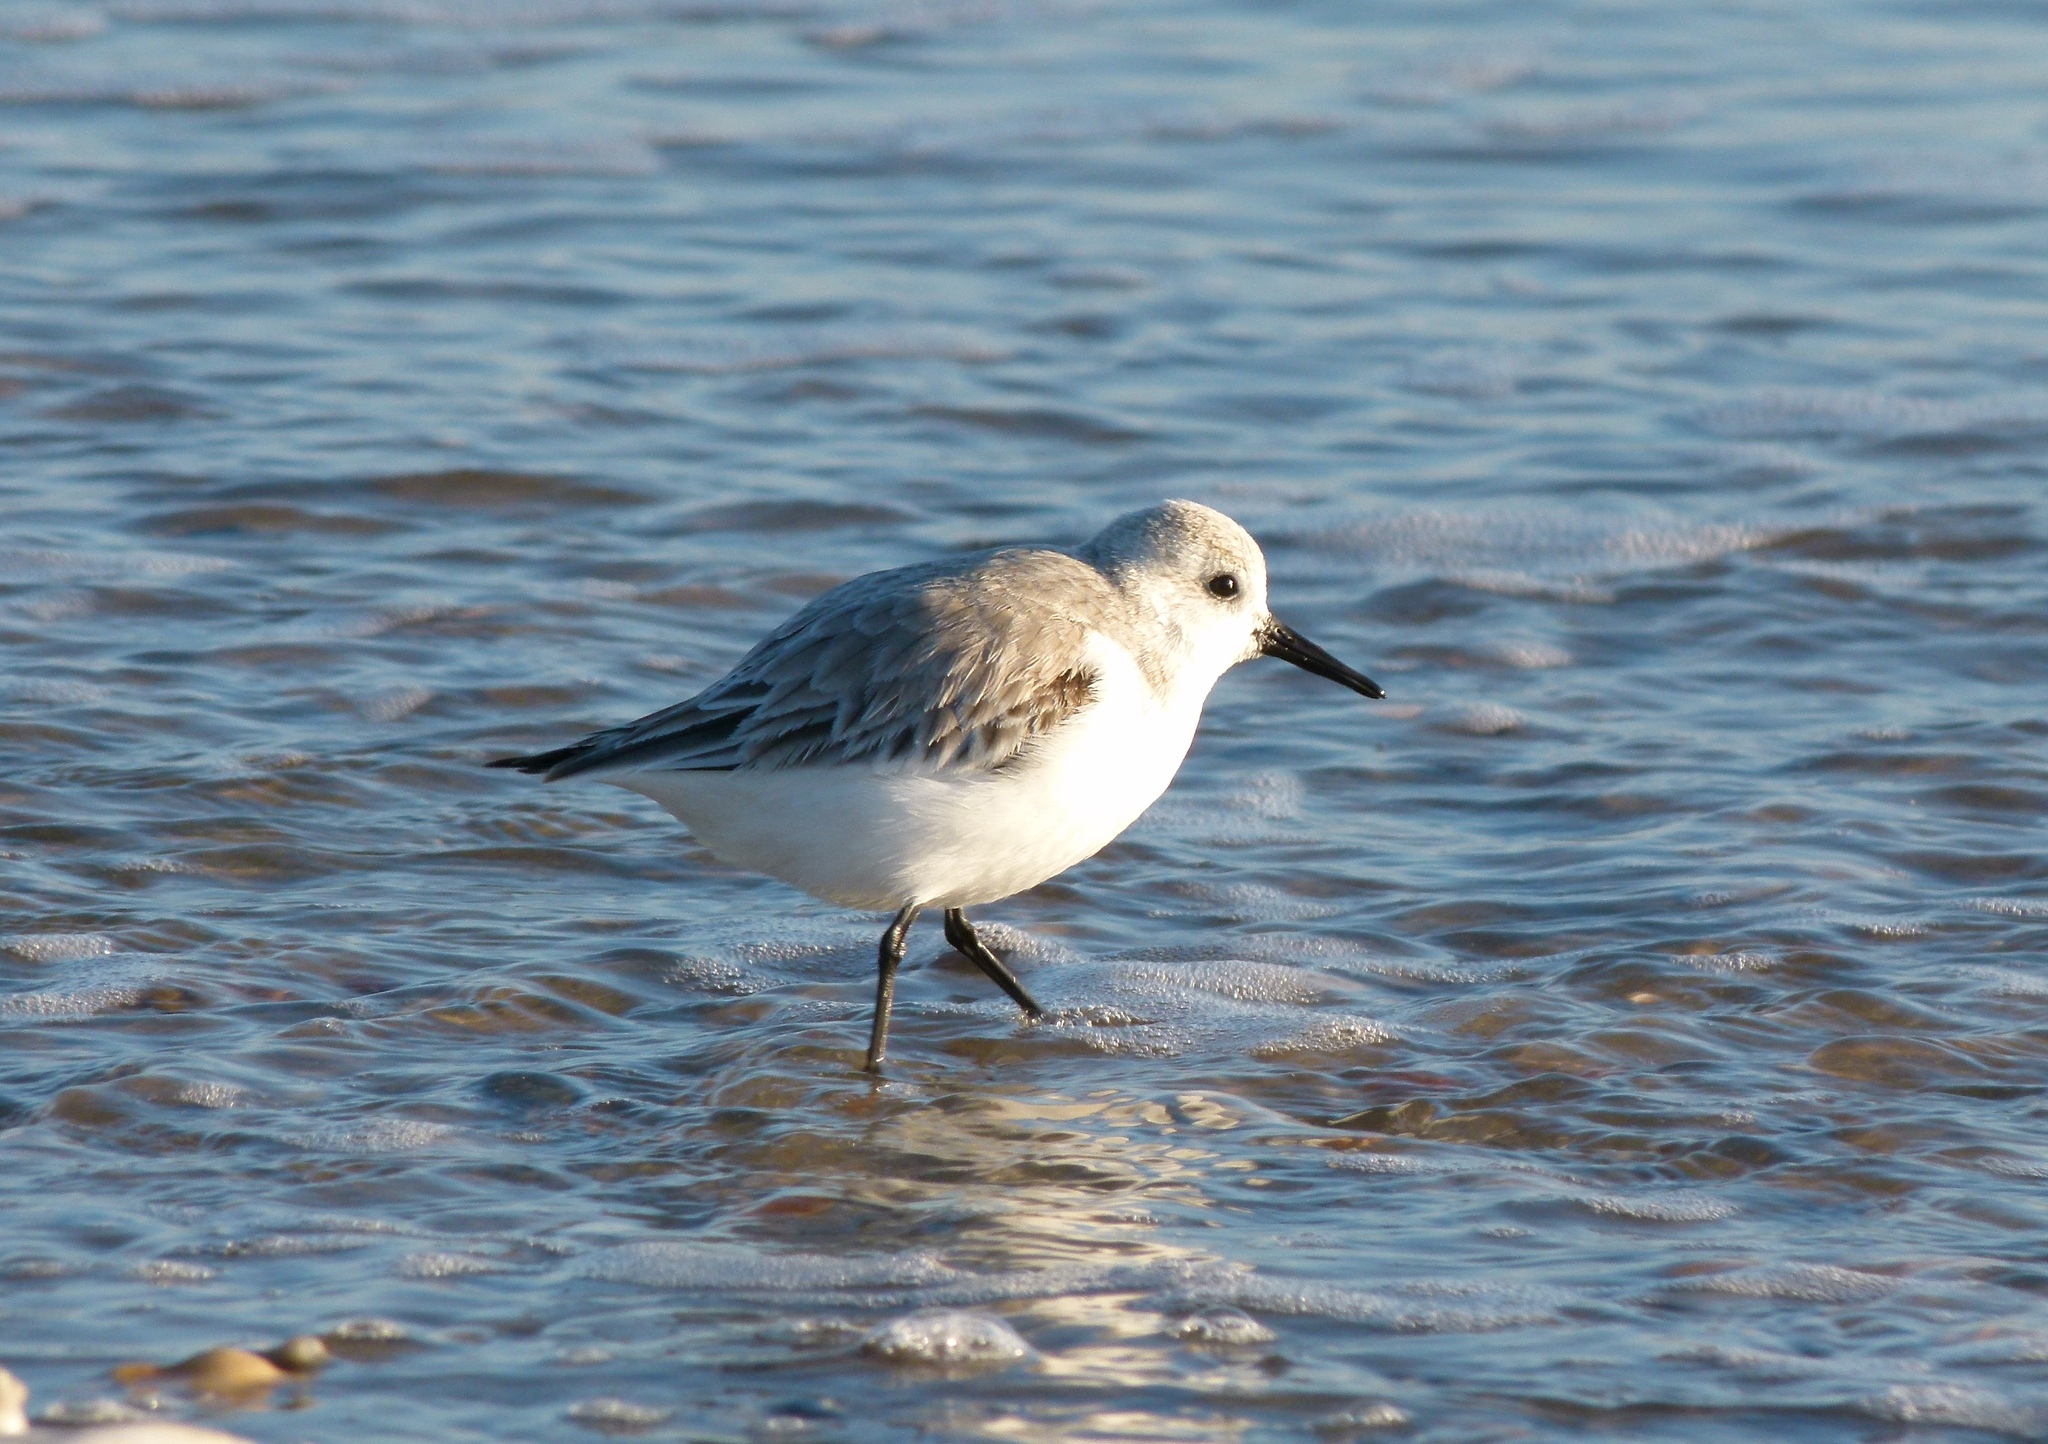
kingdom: Animalia
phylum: Chordata
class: Aves
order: Charadriiformes
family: Scolopacidae
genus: Calidris
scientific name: Calidris alba
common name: Sanderling
